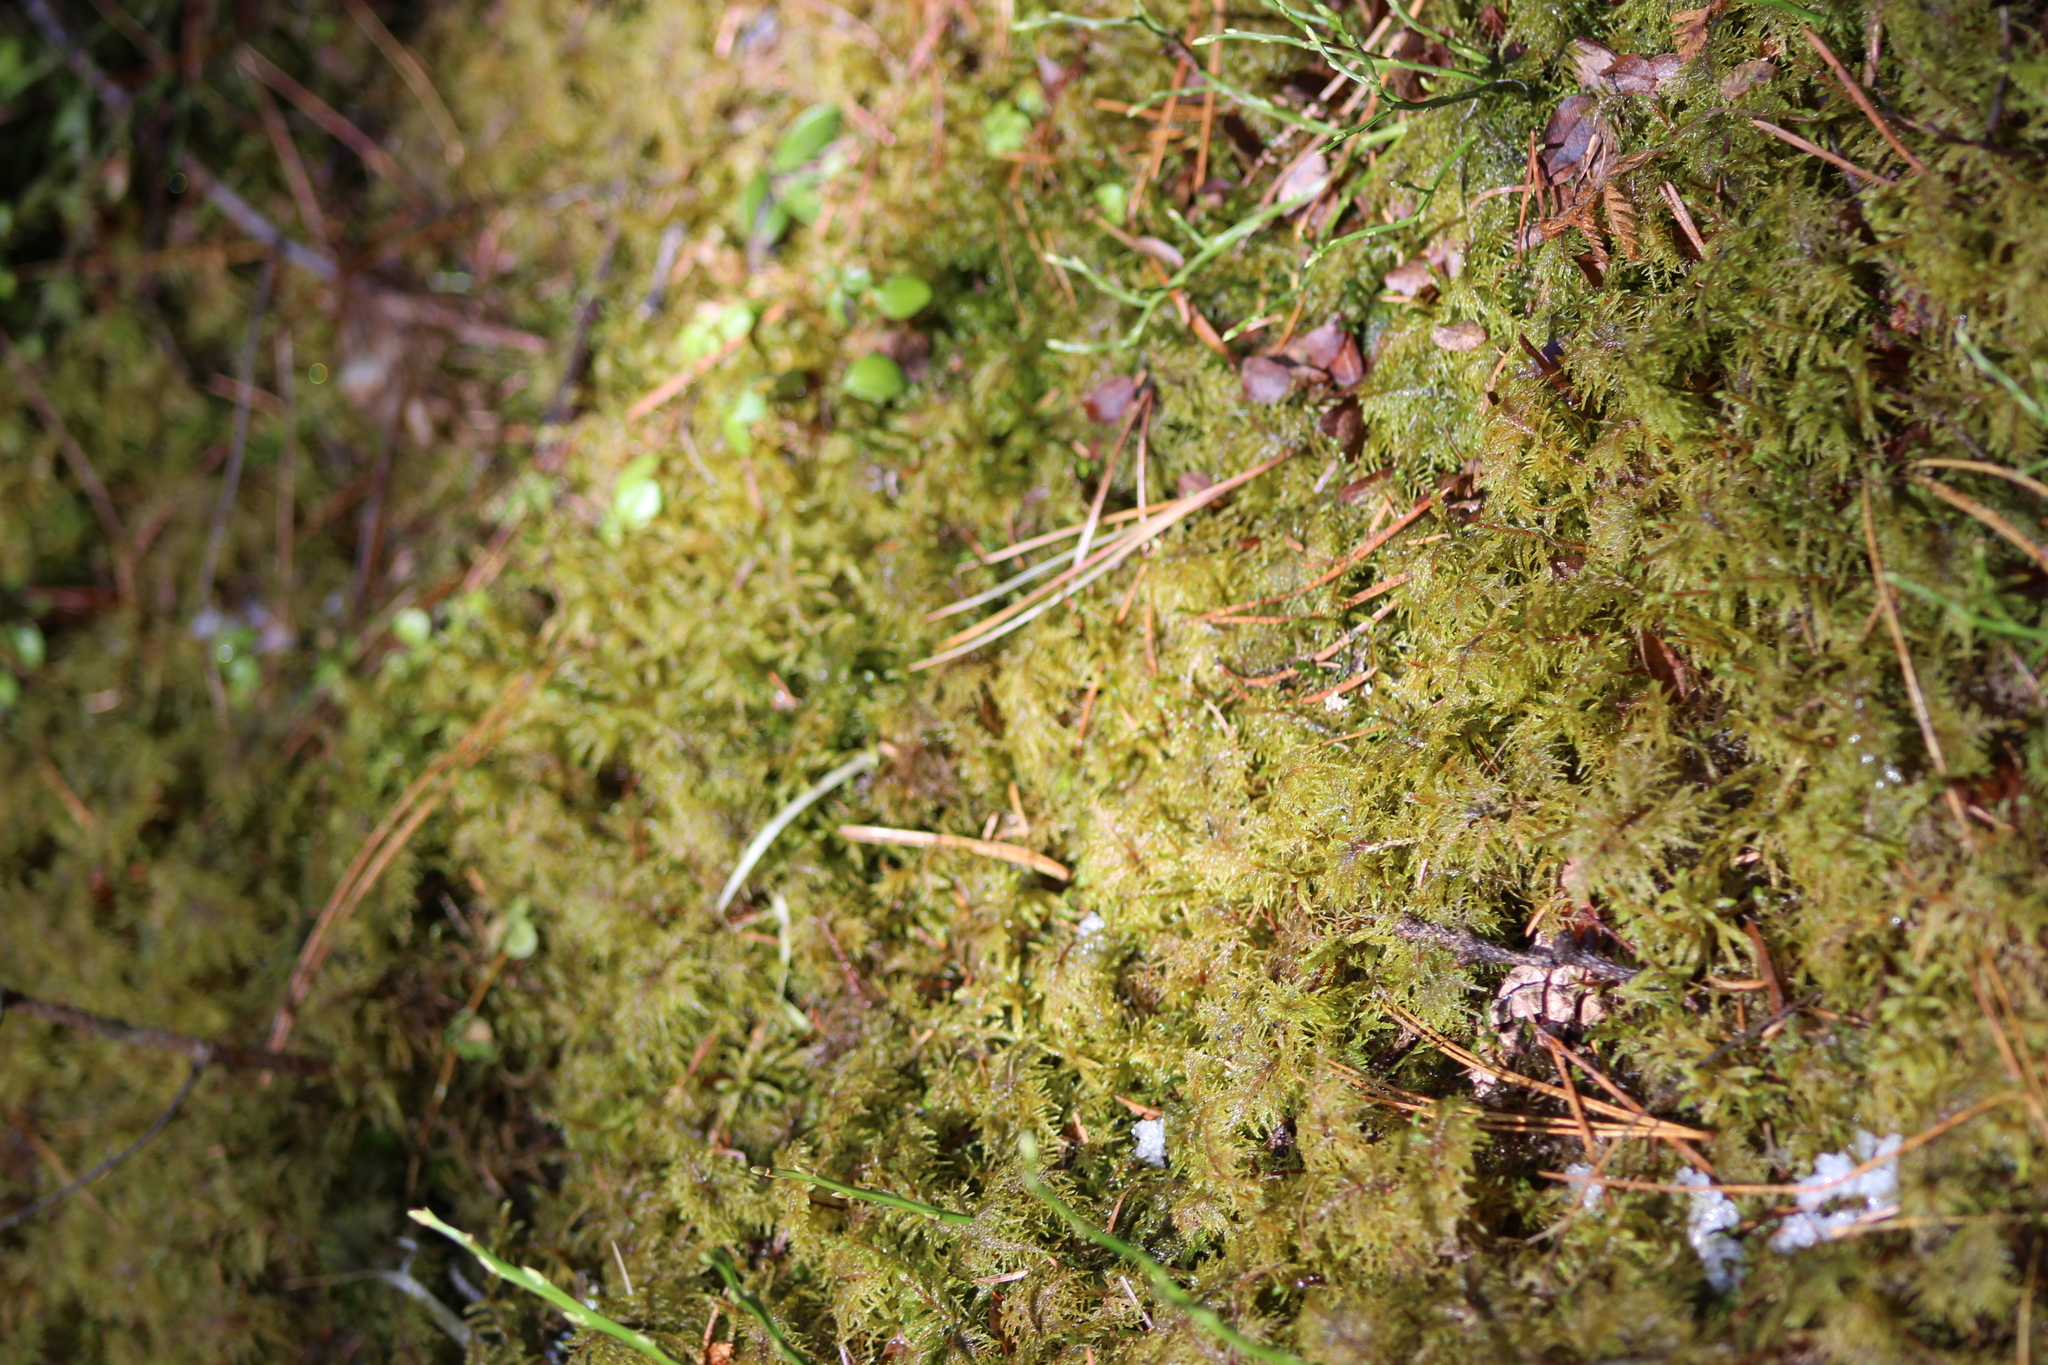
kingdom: Plantae
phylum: Bryophyta
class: Bryopsida
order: Hypnales
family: Hylocomiaceae
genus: Hylocomium
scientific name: Hylocomium splendens
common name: Stairstep moss
